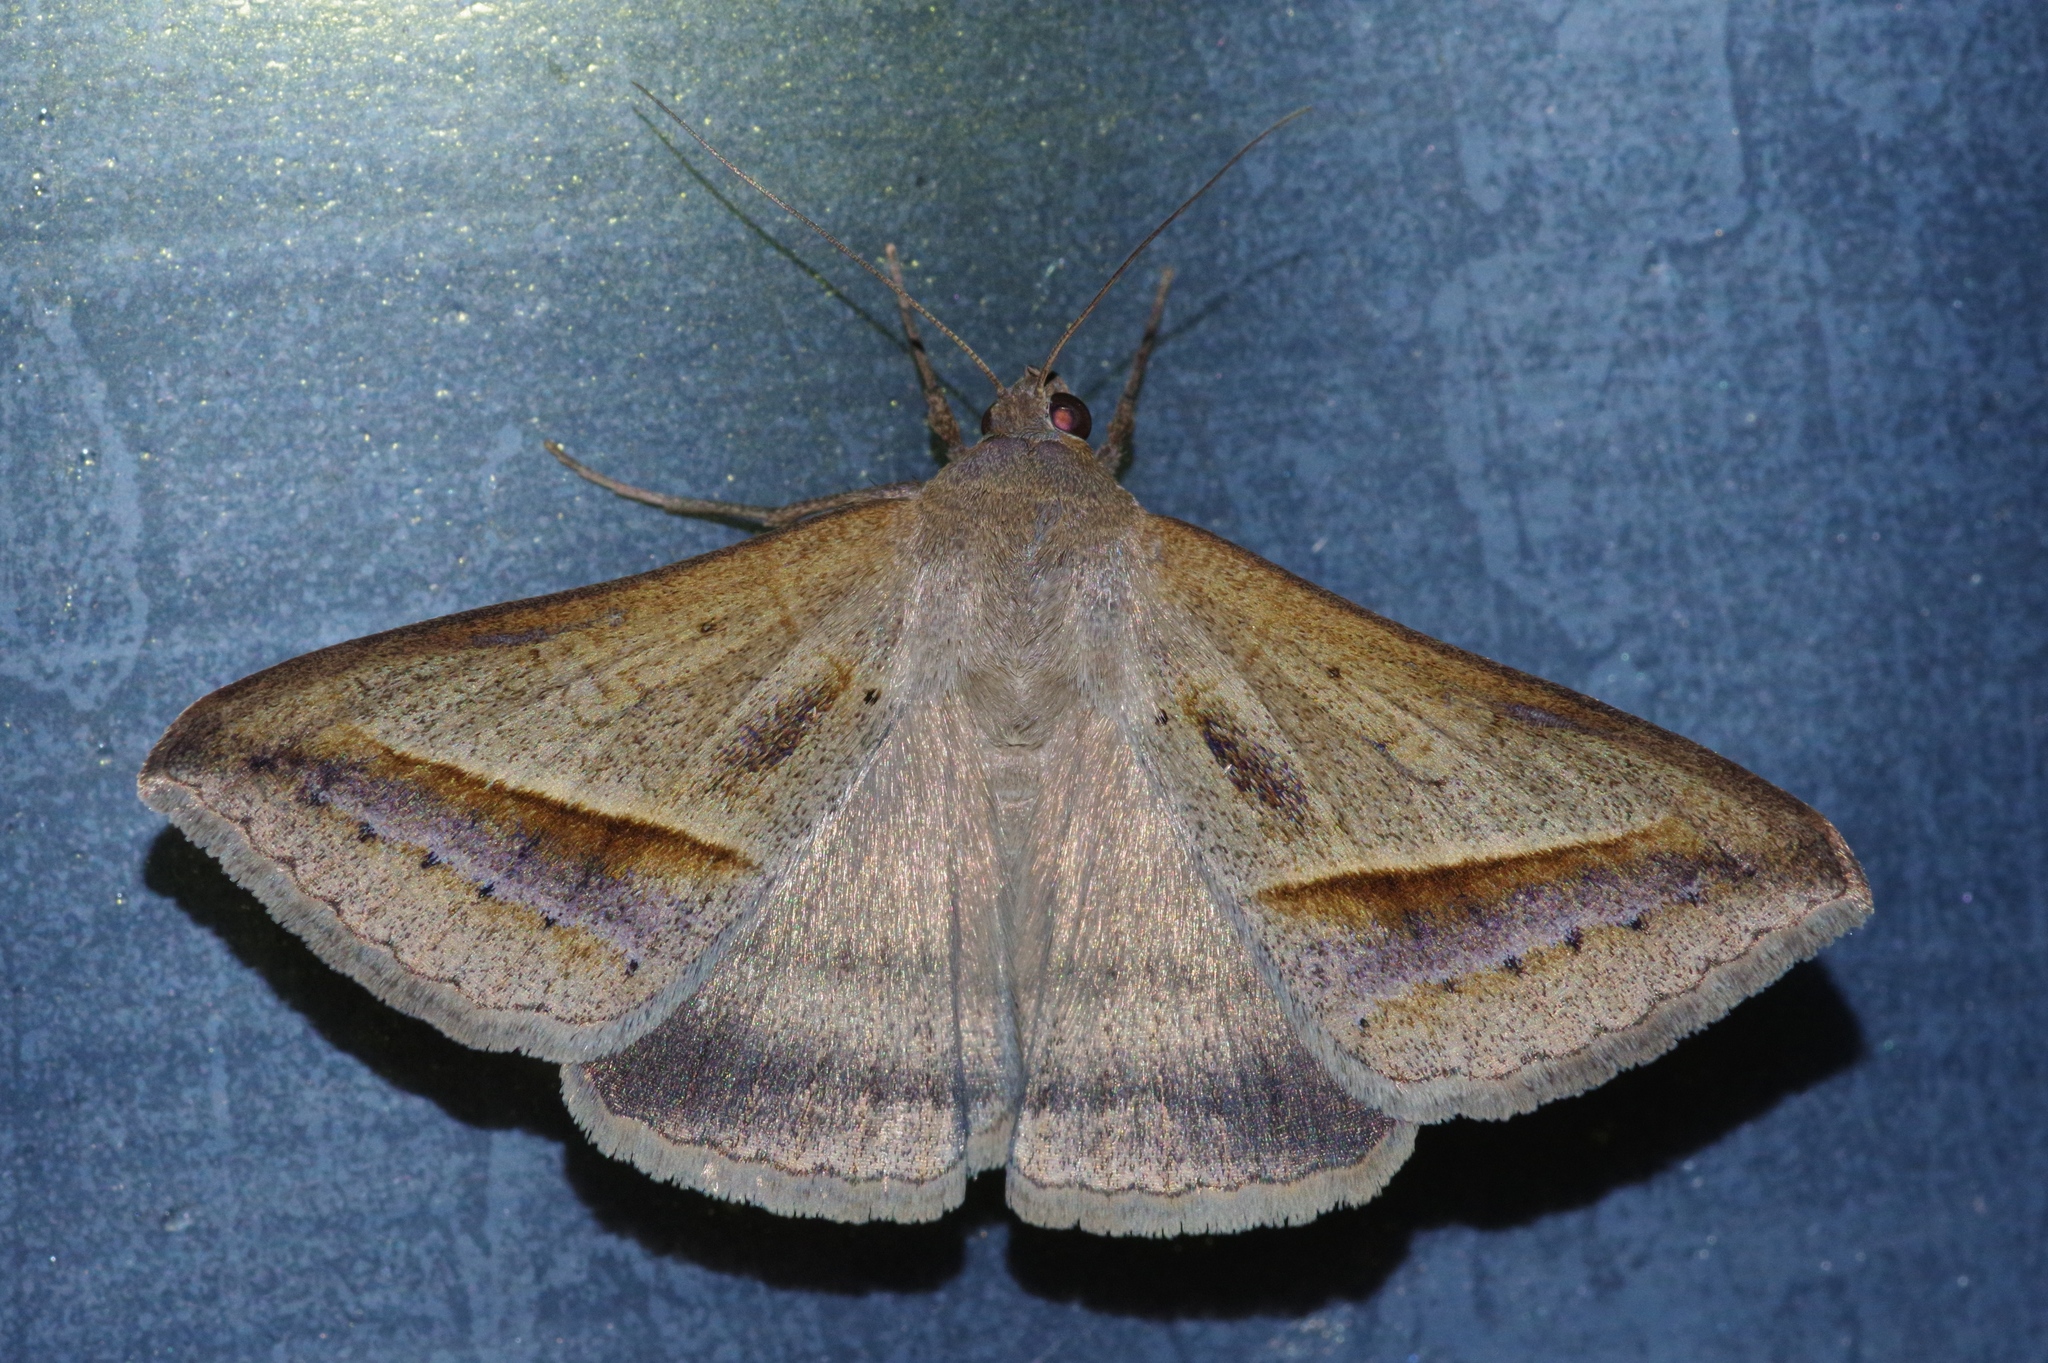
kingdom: Animalia
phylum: Arthropoda
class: Insecta
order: Lepidoptera
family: Erebidae
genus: Mocis
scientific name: Mocis frugalis
